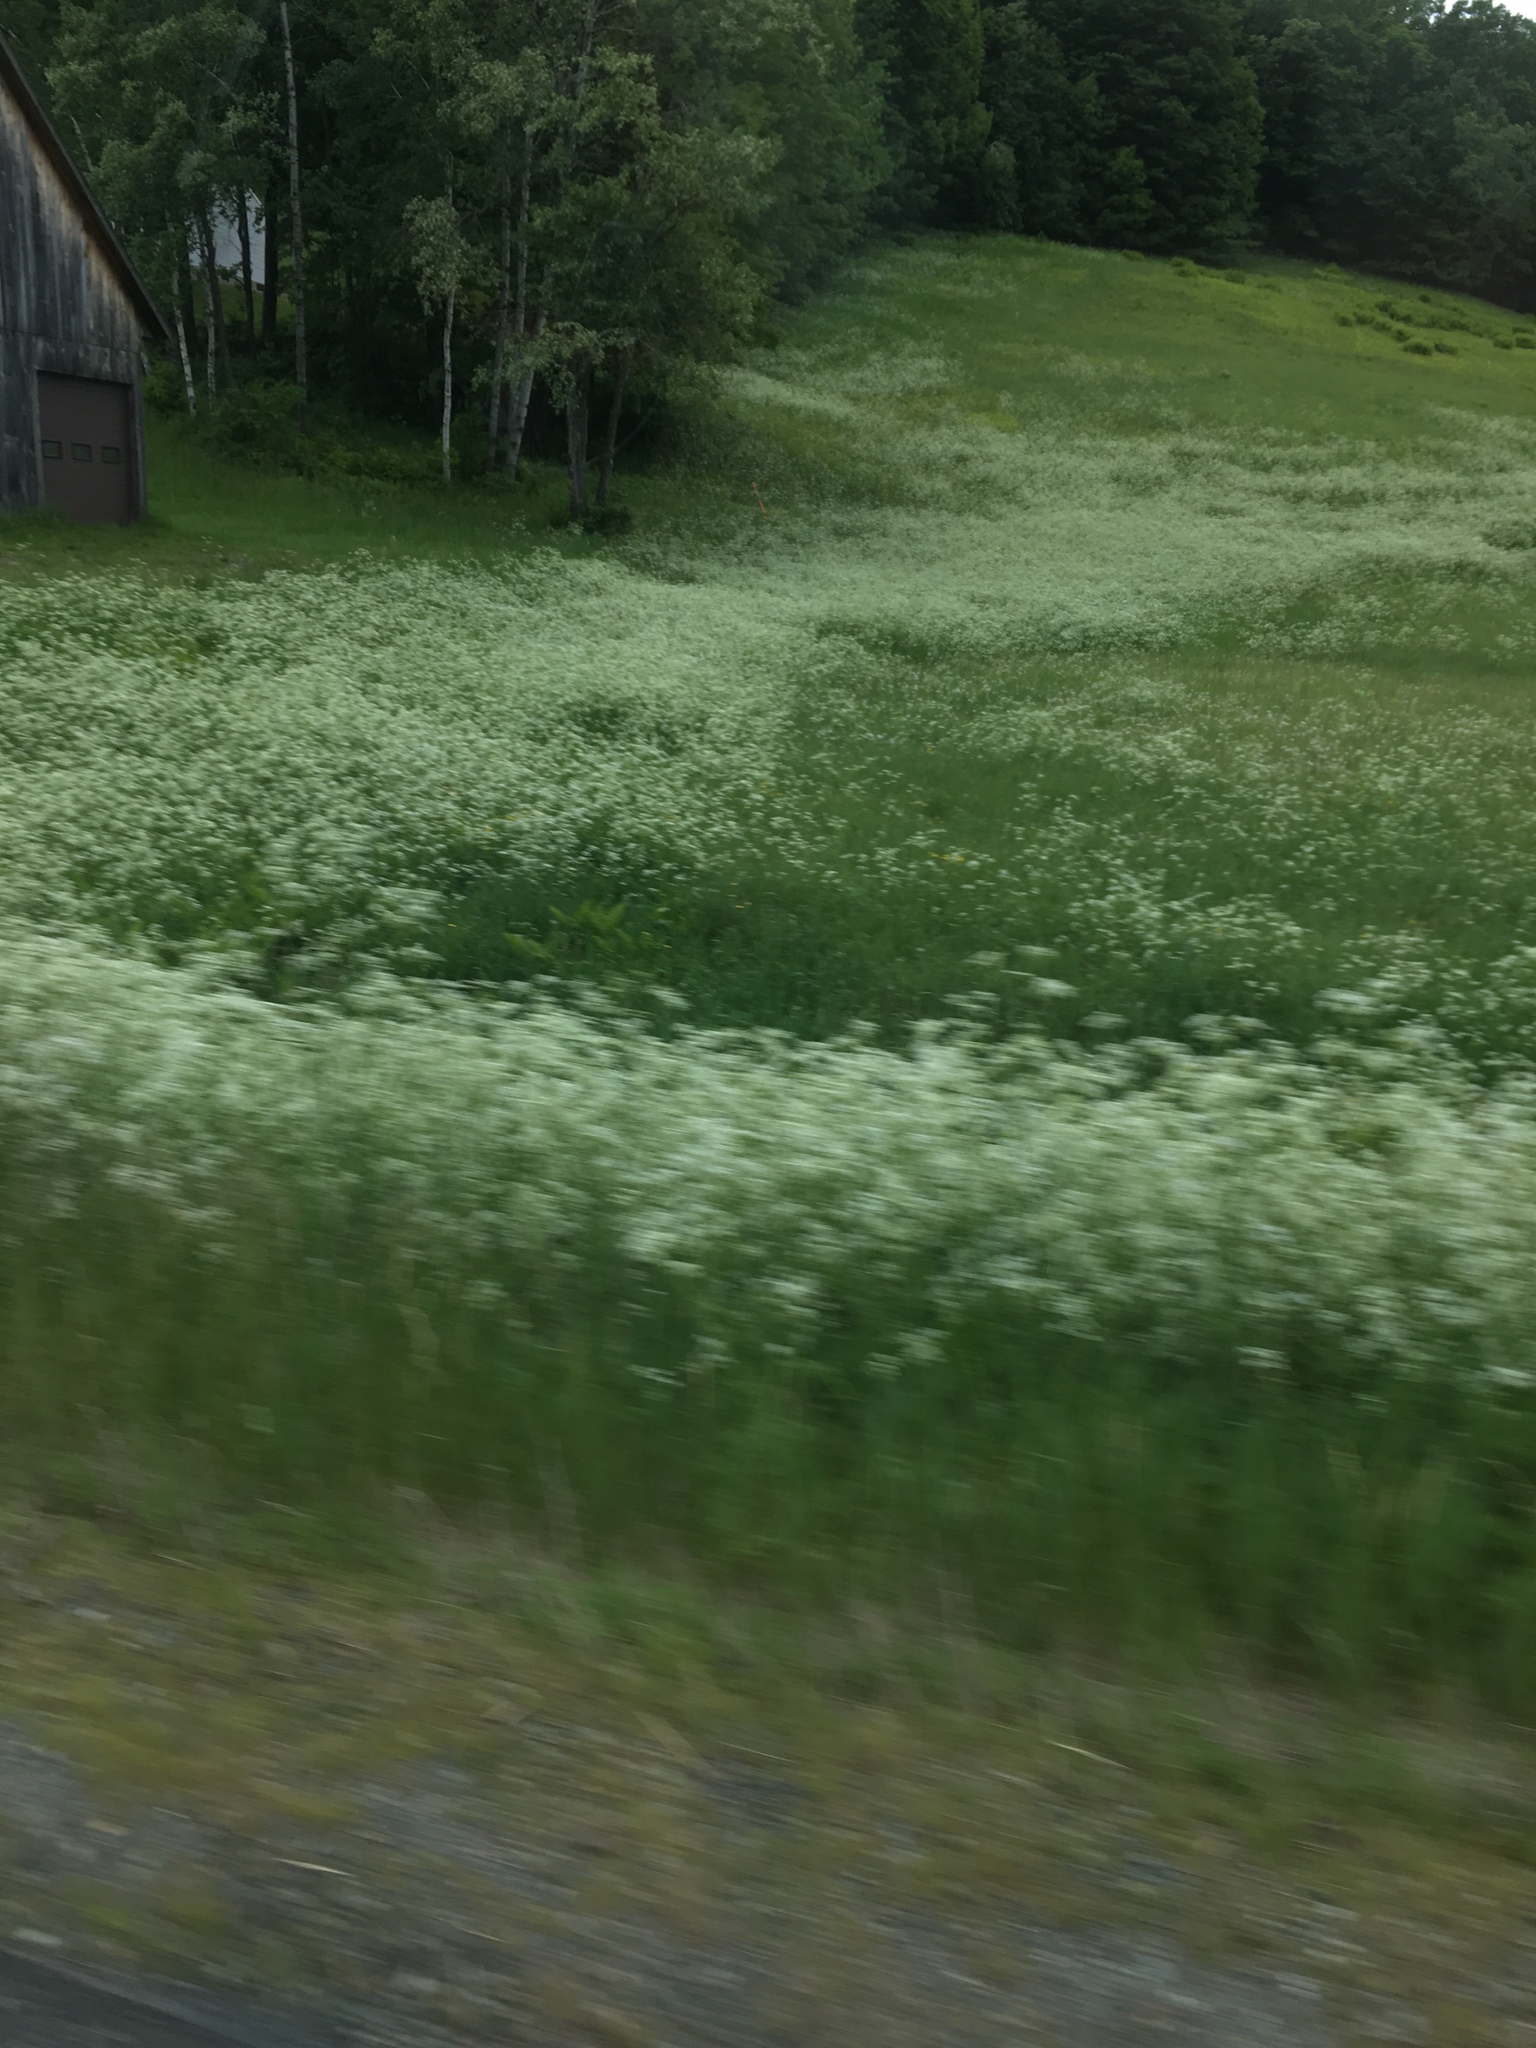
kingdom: Plantae
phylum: Tracheophyta
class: Magnoliopsida
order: Apiales
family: Apiaceae
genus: Anthriscus
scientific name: Anthriscus sylvestris
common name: Cow parsley
